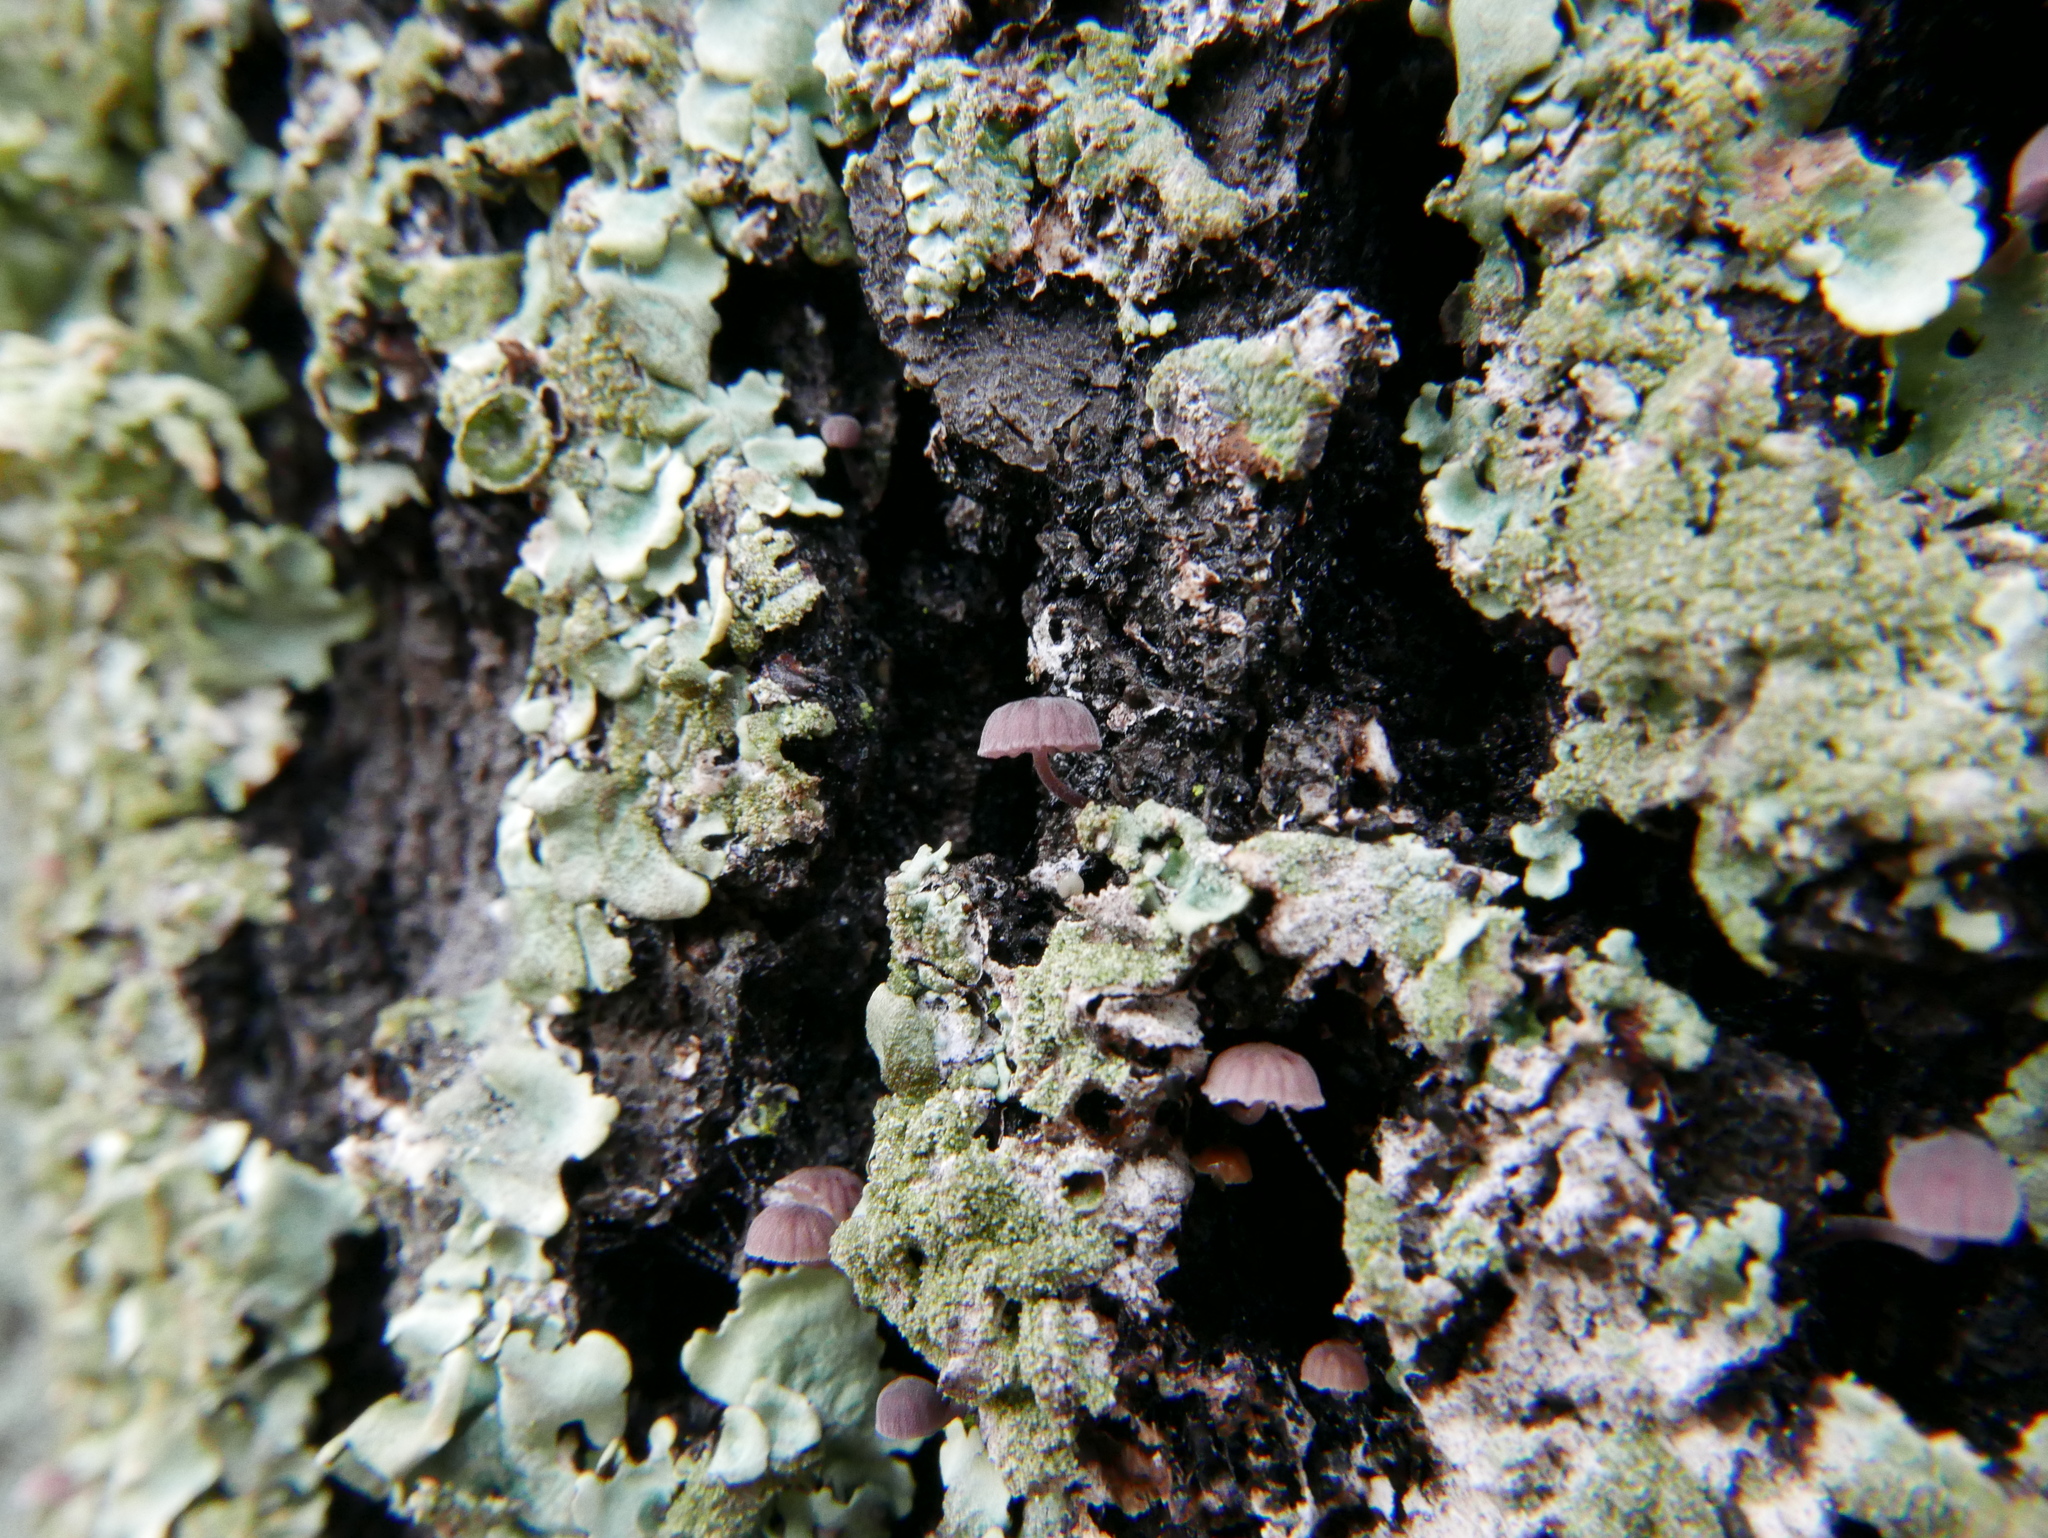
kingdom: Fungi
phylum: Basidiomycota
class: Agaricomycetes
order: Agaricales
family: Mycenaceae
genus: Mycena
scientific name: Mycena meliigena
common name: Mauve bonnet
